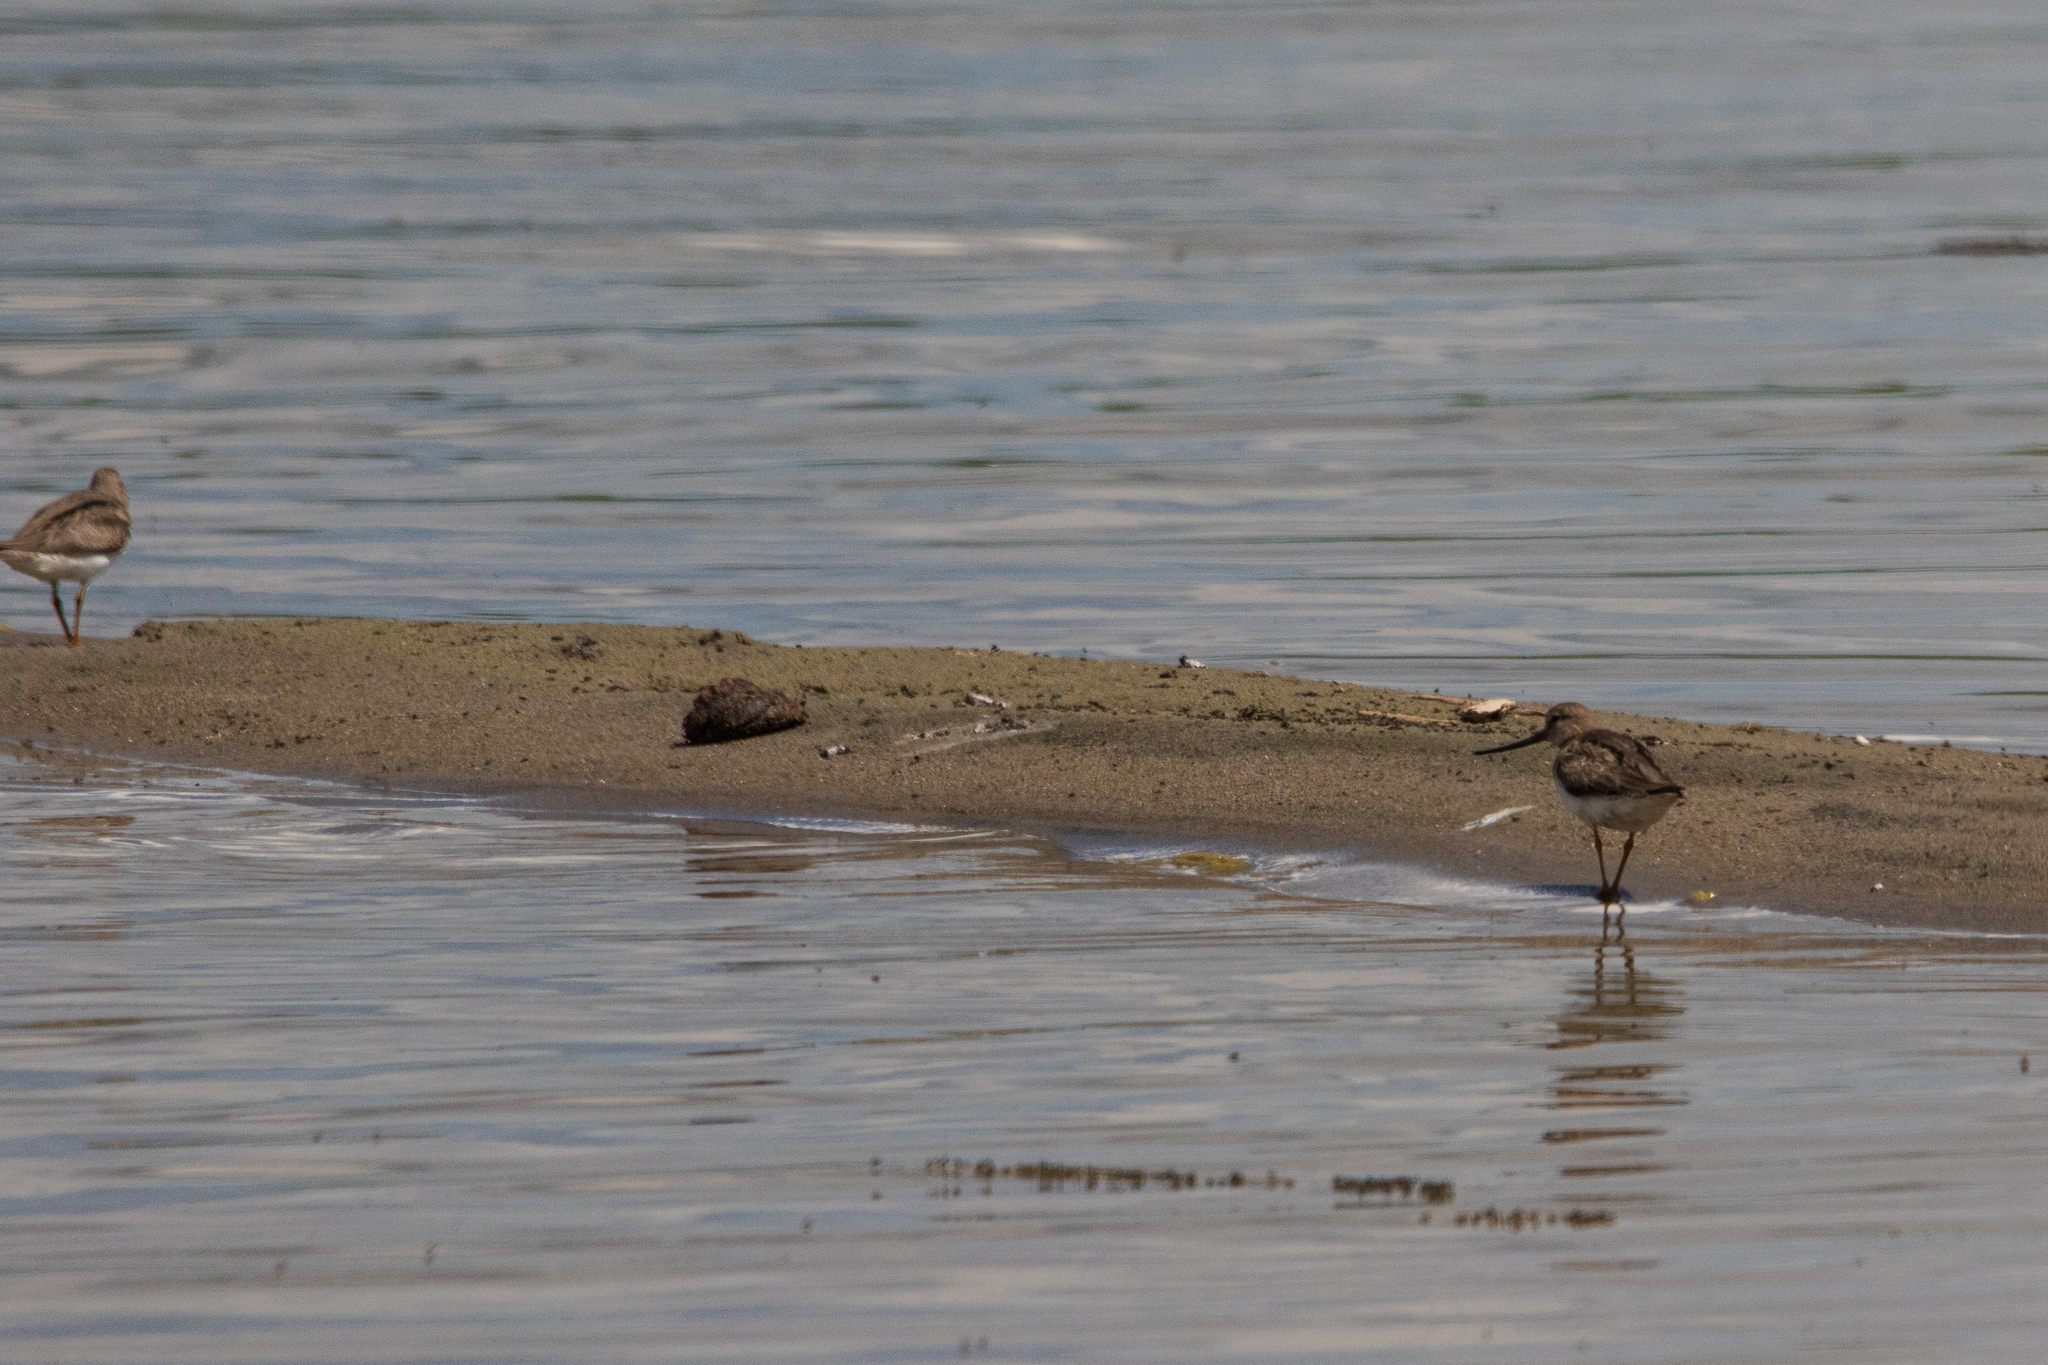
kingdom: Animalia
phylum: Chordata
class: Aves
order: Charadriiformes
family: Scolopacidae
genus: Xenus
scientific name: Xenus cinereus
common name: Terek sandpiper
